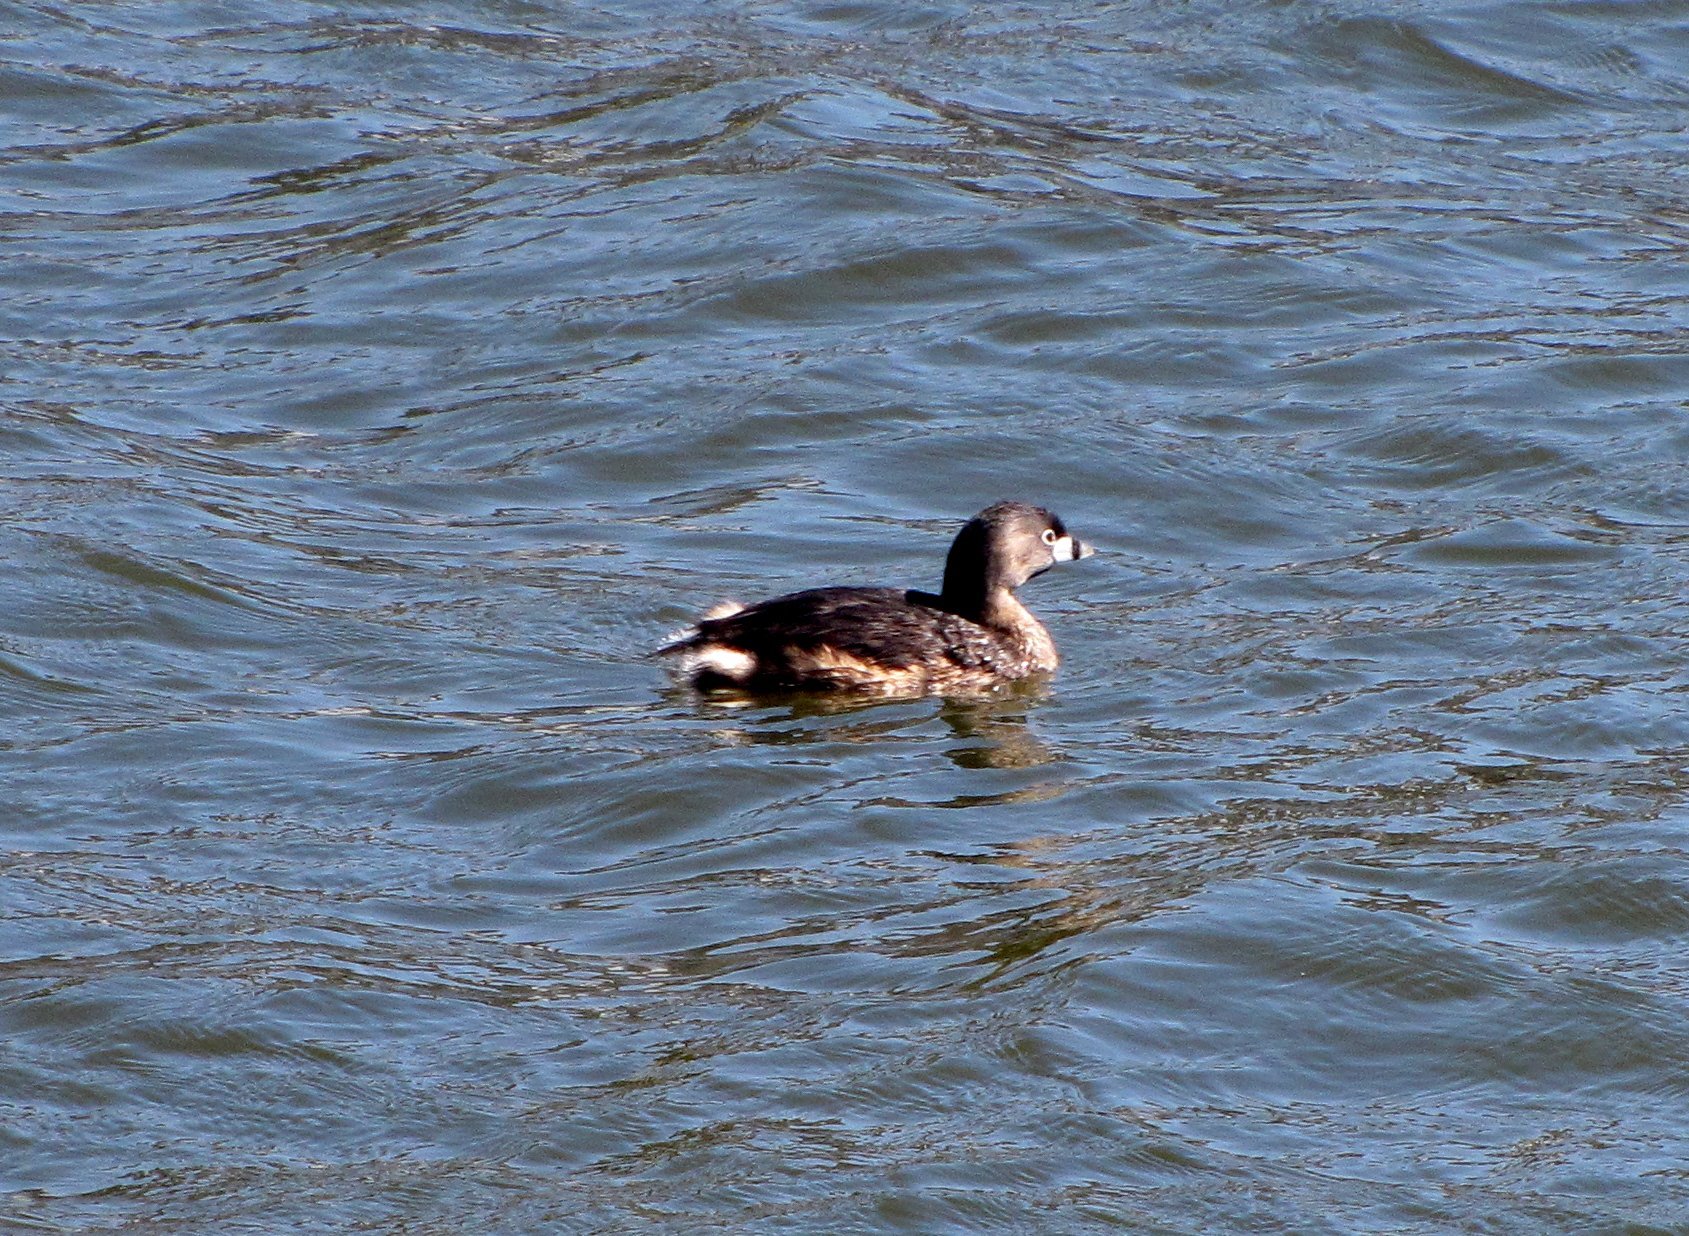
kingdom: Animalia
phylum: Chordata
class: Aves
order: Podicipediformes
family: Podicipedidae
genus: Podilymbus
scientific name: Podilymbus podiceps
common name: Pied-billed grebe
